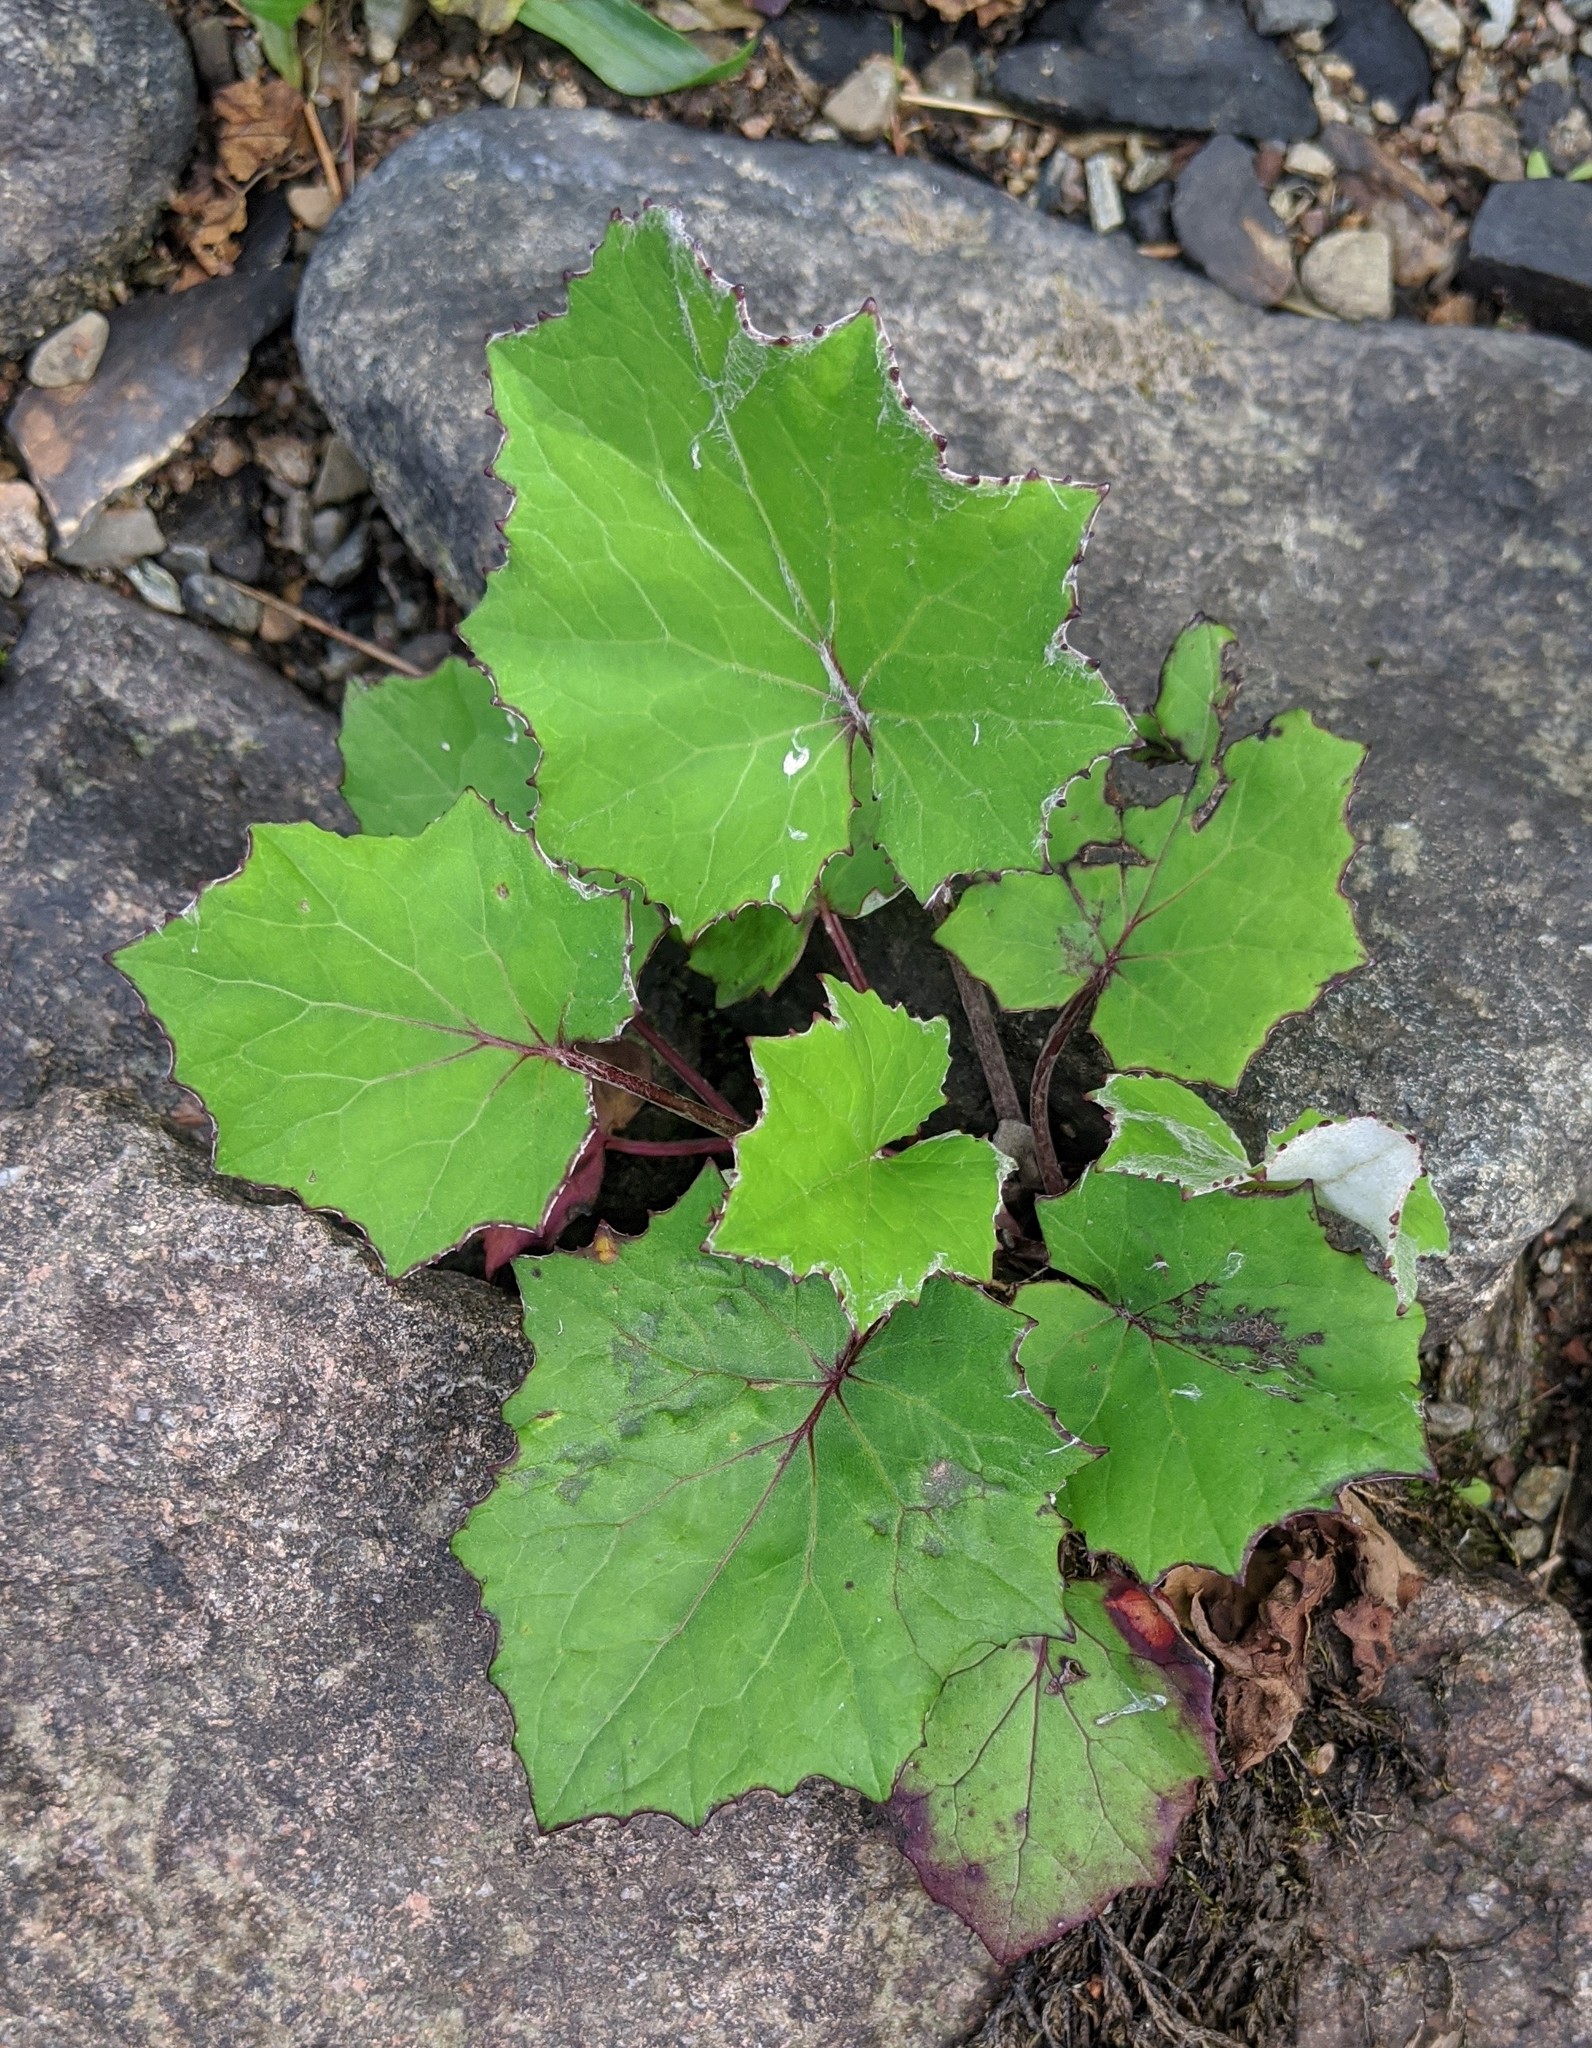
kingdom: Plantae
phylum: Tracheophyta
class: Magnoliopsida
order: Asterales
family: Asteraceae
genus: Tussilago
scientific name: Tussilago farfara
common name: Coltsfoot
